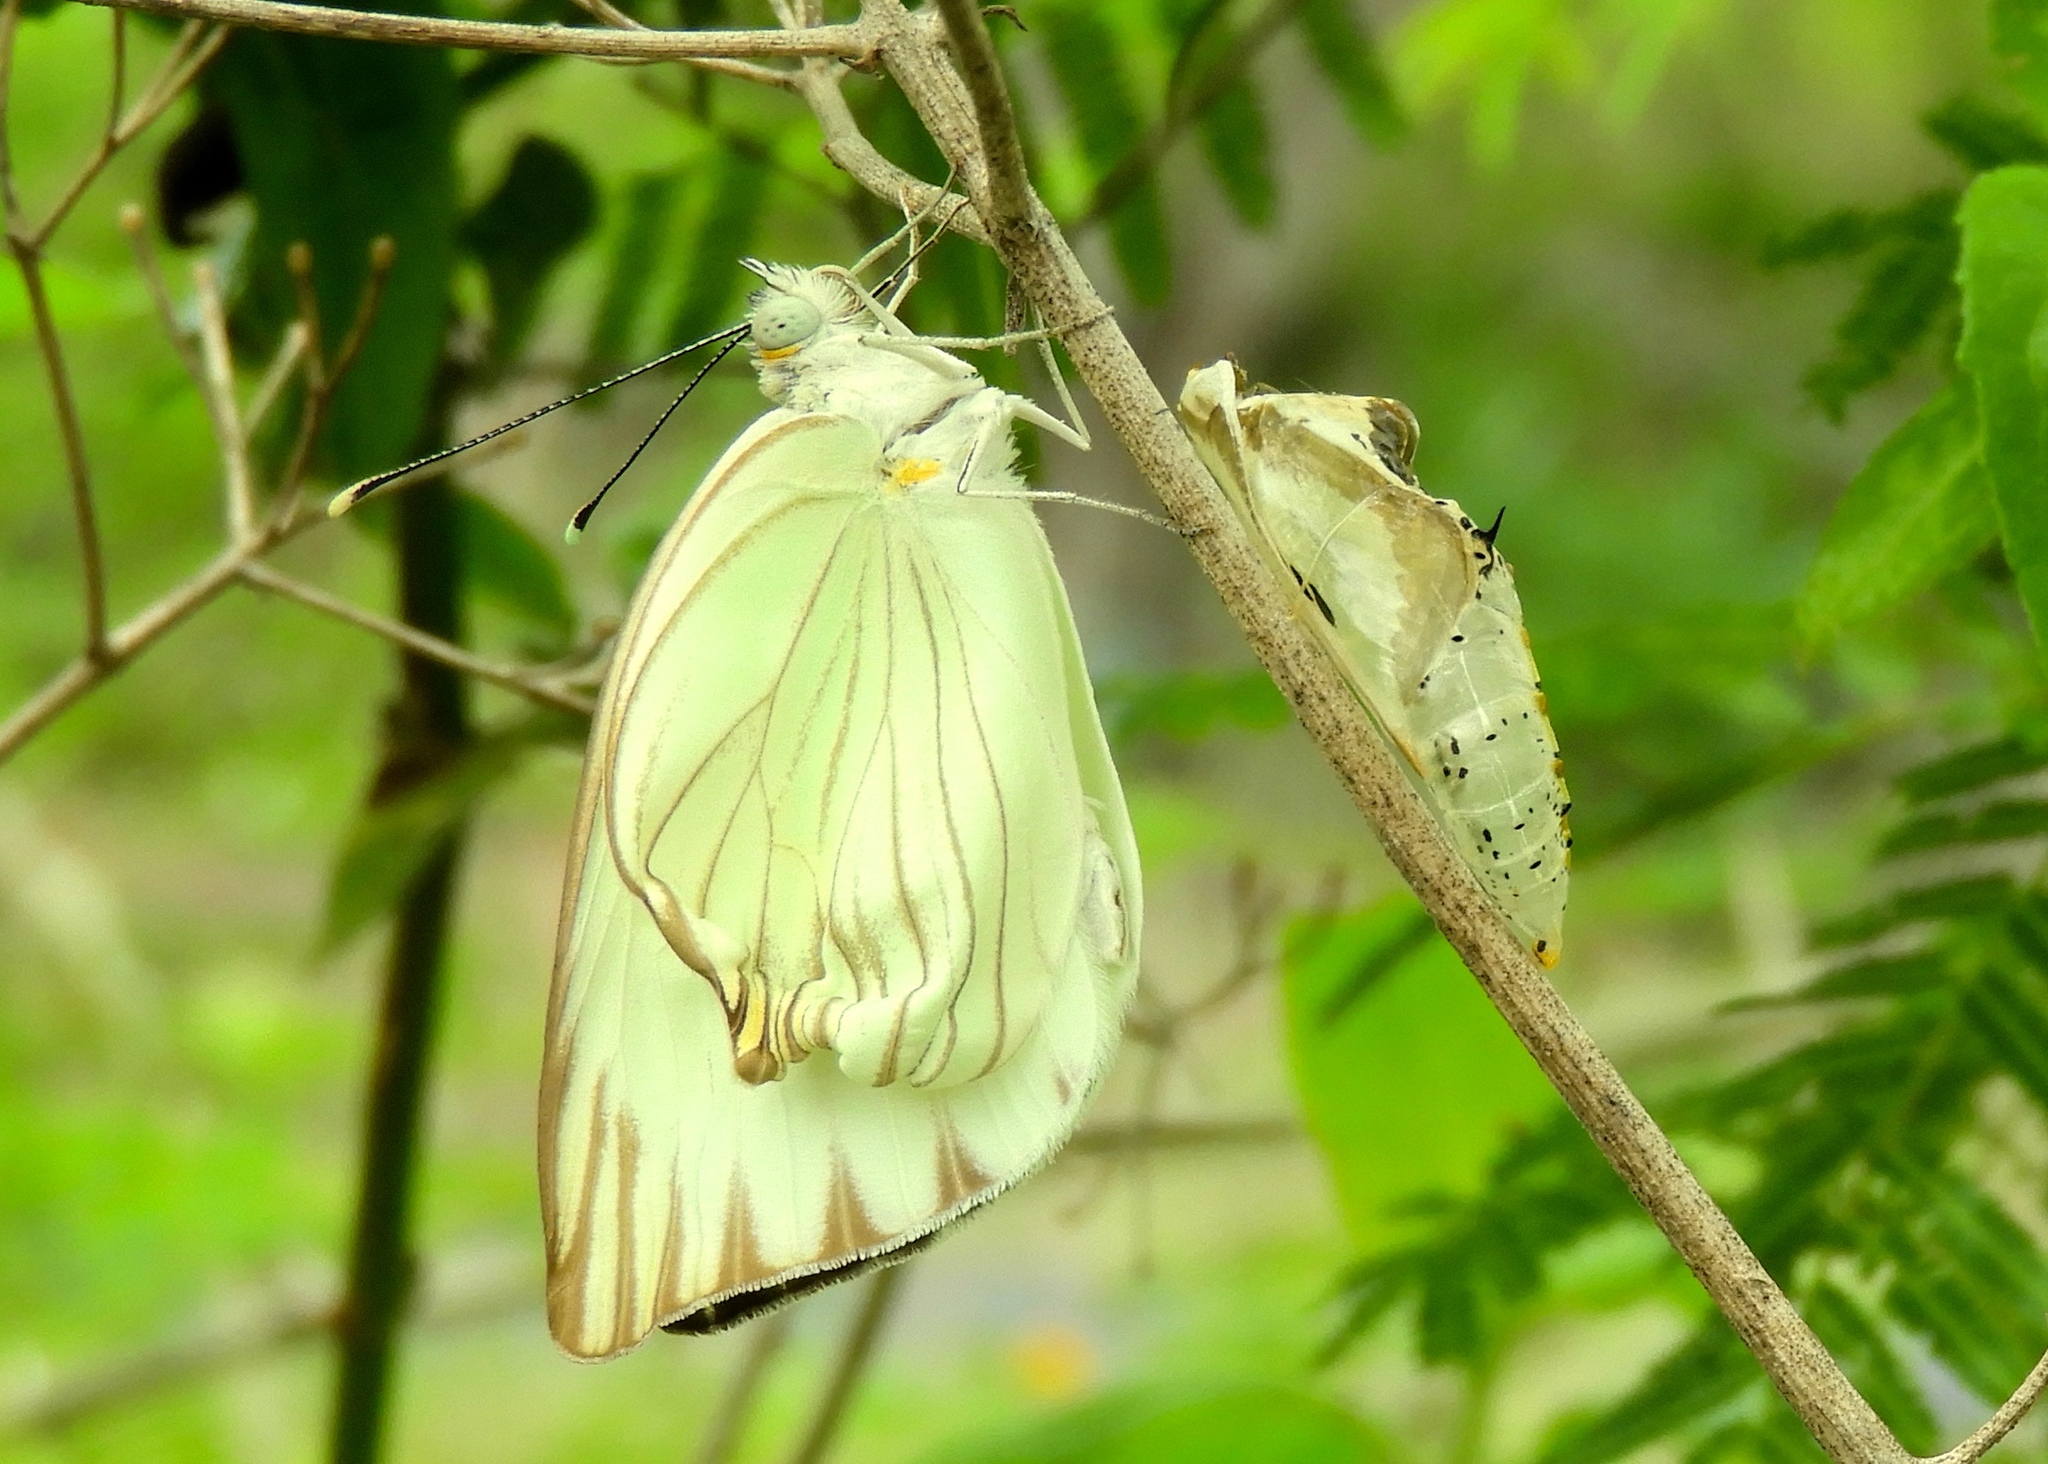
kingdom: Animalia
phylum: Arthropoda
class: Insecta
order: Lepidoptera
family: Pieridae
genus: Ascia
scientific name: Ascia monuste
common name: Great southern white
